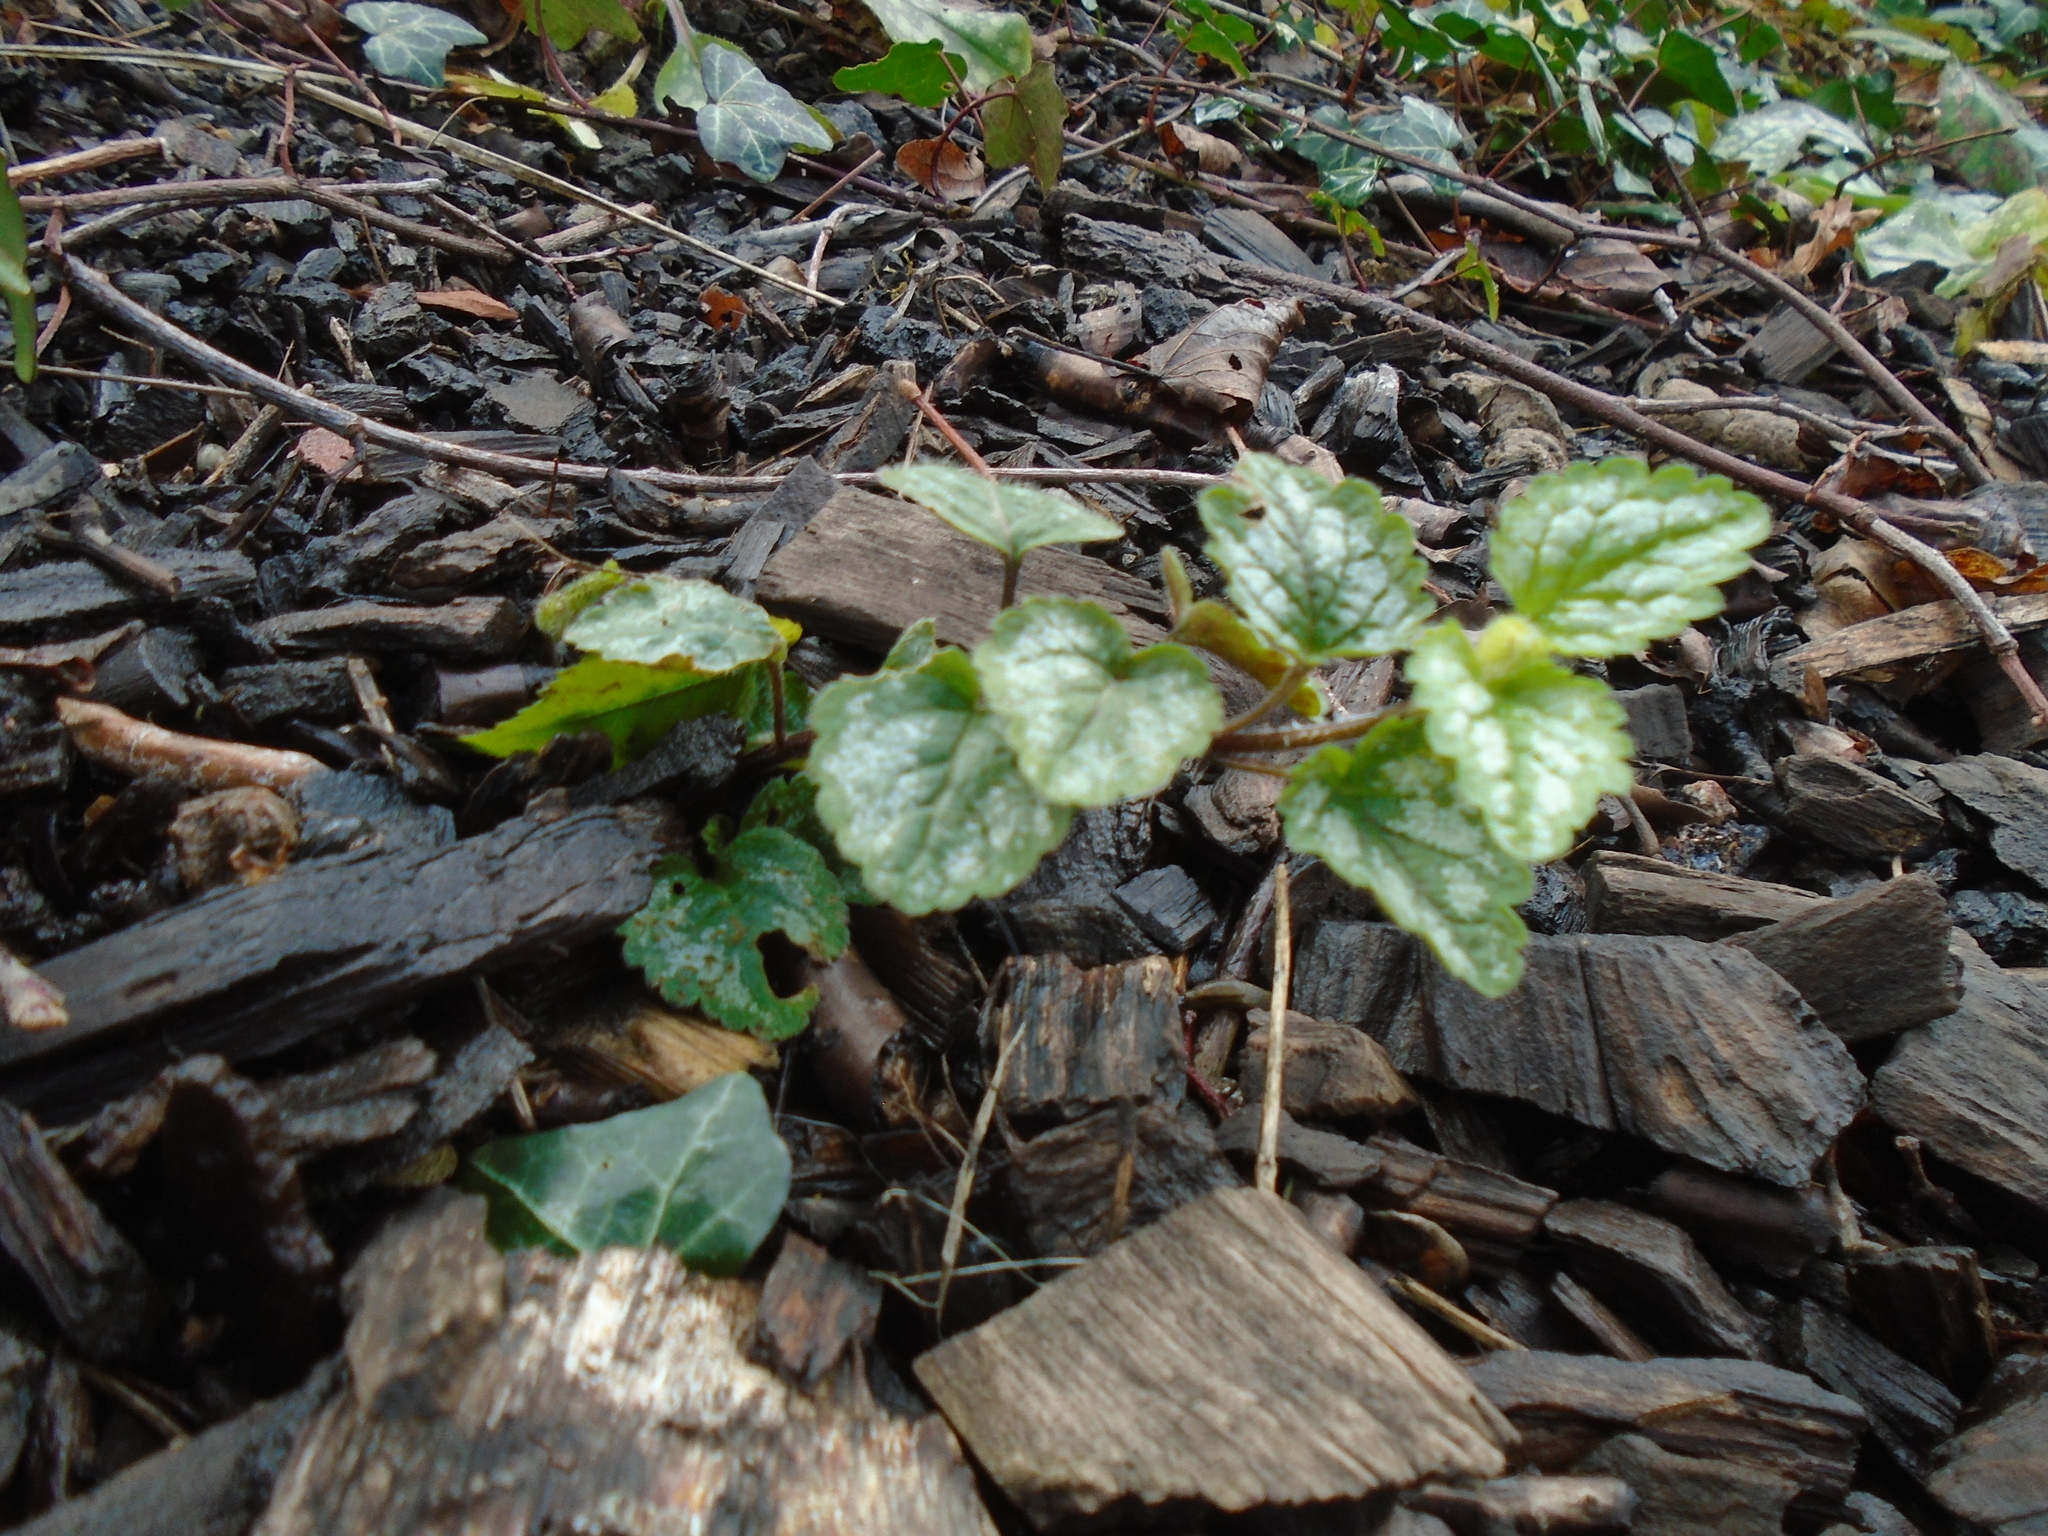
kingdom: Plantae
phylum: Tracheophyta
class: Magnoliopsida
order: Lamiales
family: Lamiaceae
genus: Lamium
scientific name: Lamium galeobdolon
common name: Yellow archangel
